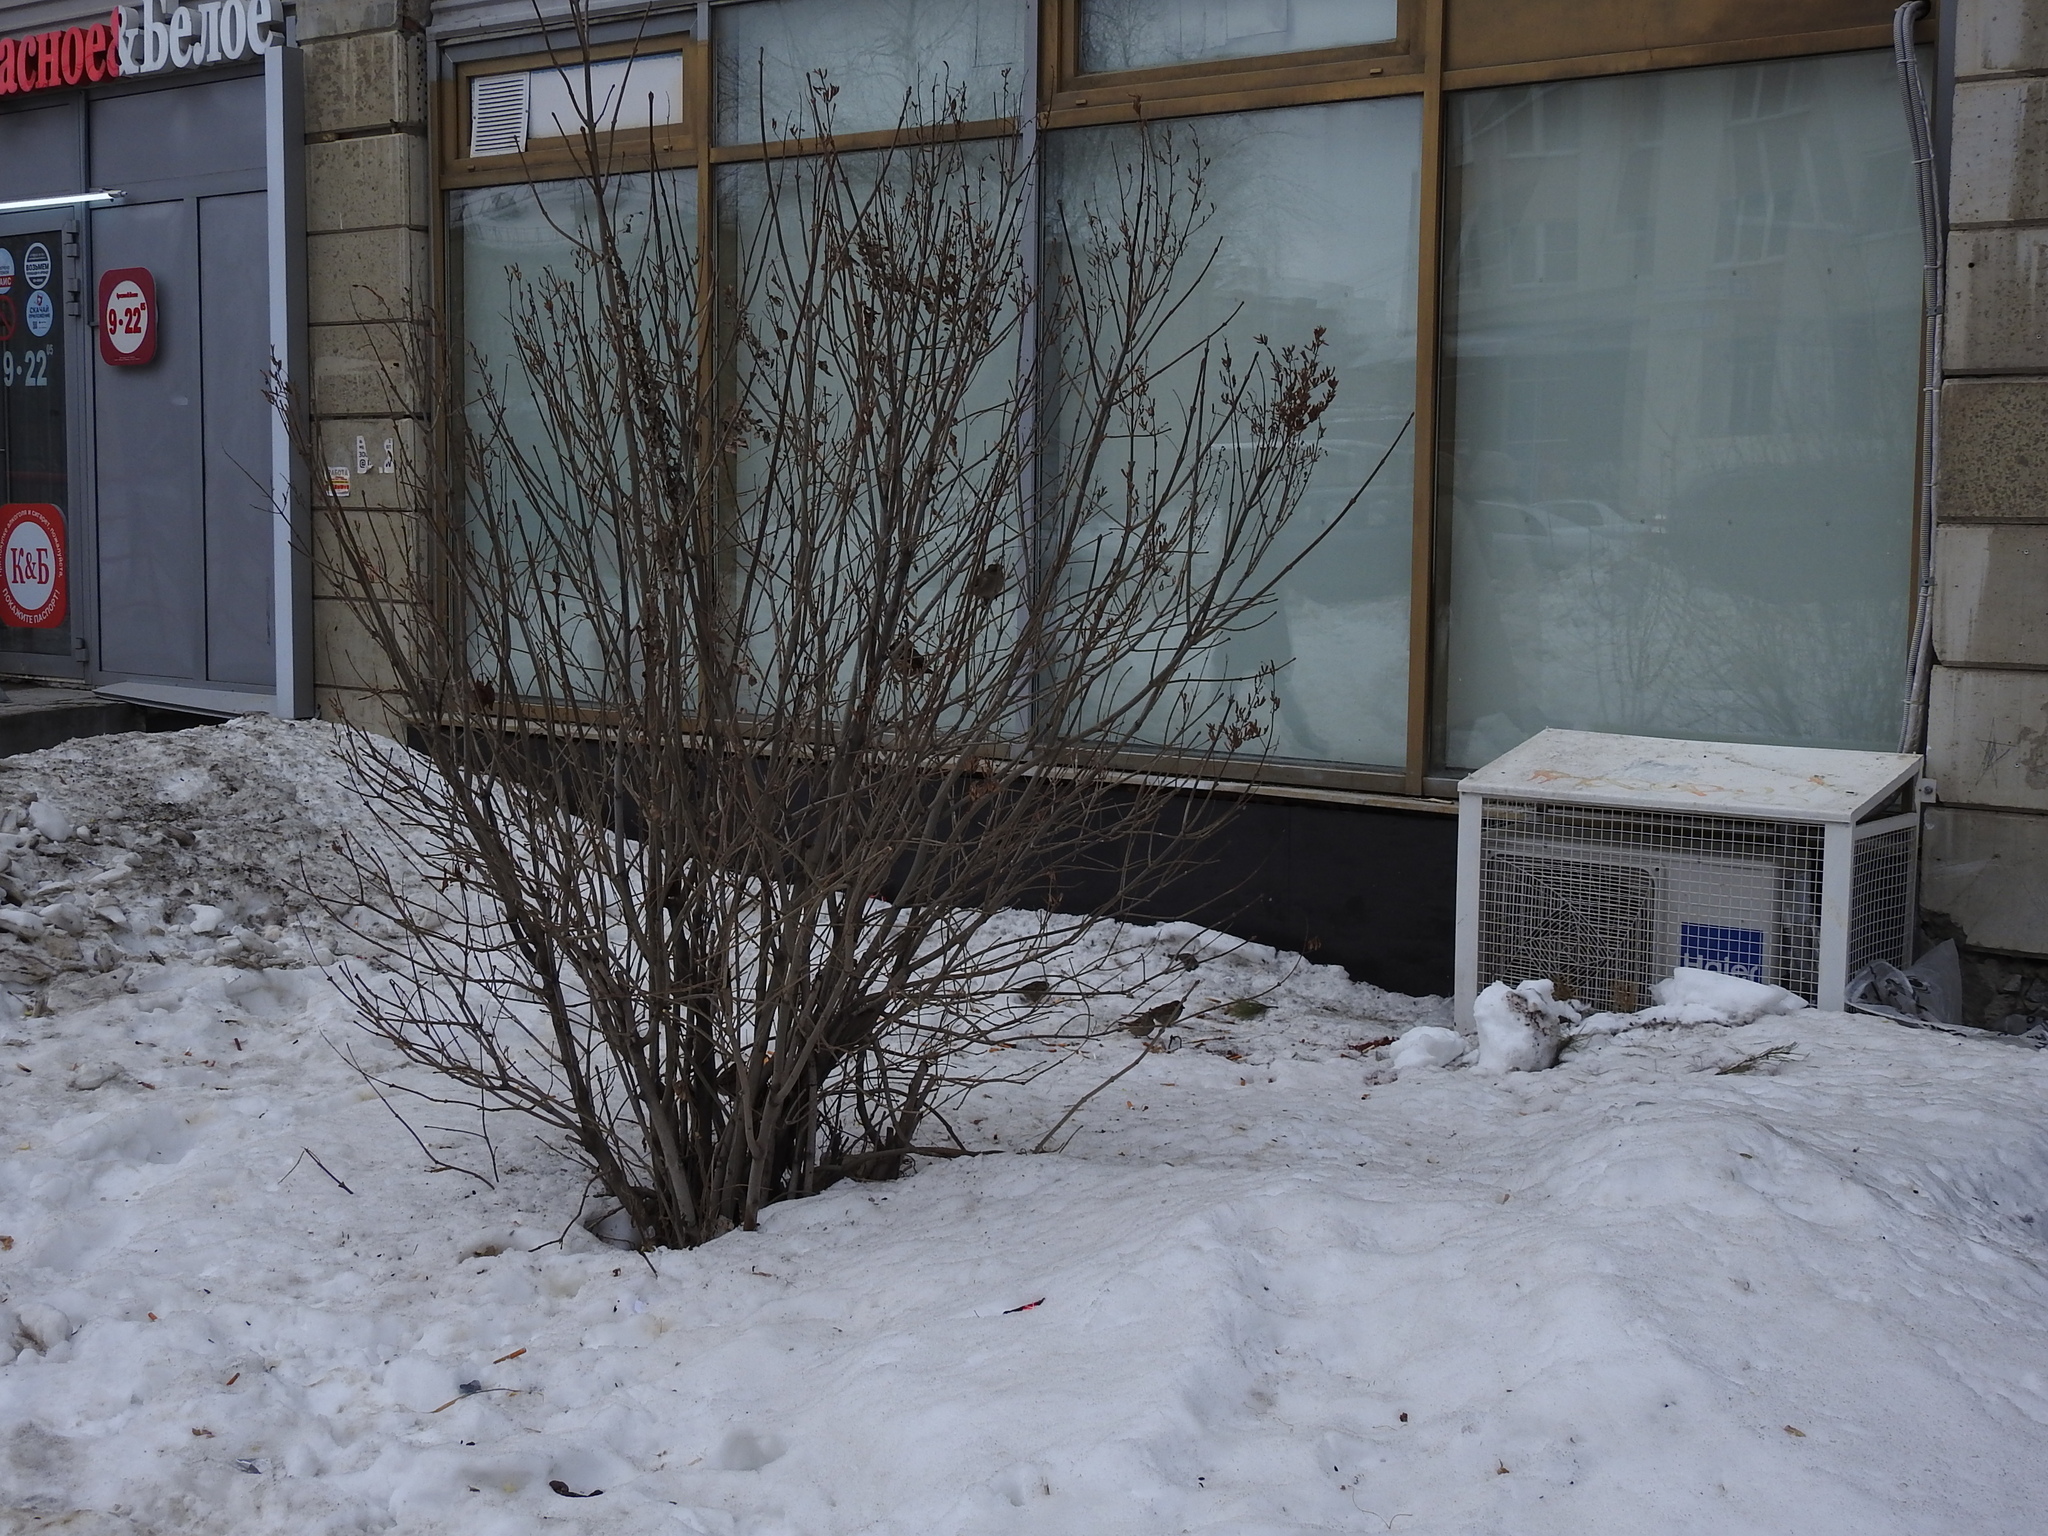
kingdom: Animalia
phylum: Chordata
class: Aves
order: Passeriformes
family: Passeridae
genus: Passer
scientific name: Passer domesticus
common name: House sparrow
